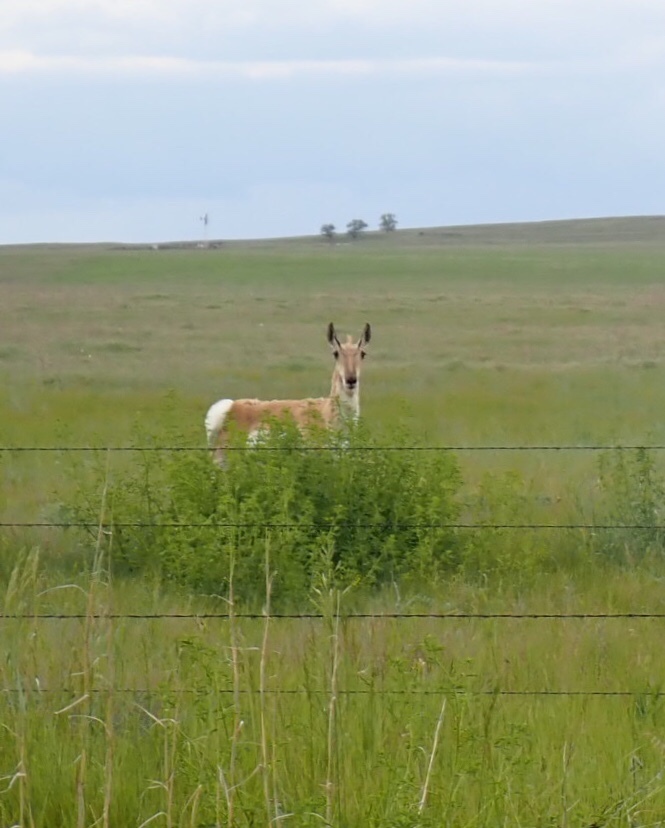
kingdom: Animalia
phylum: Chordata
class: Mammalia
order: Artiodactyla
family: Antilocapridae
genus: Antilocapra
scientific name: Antilocapra americana
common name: Pronghorn
